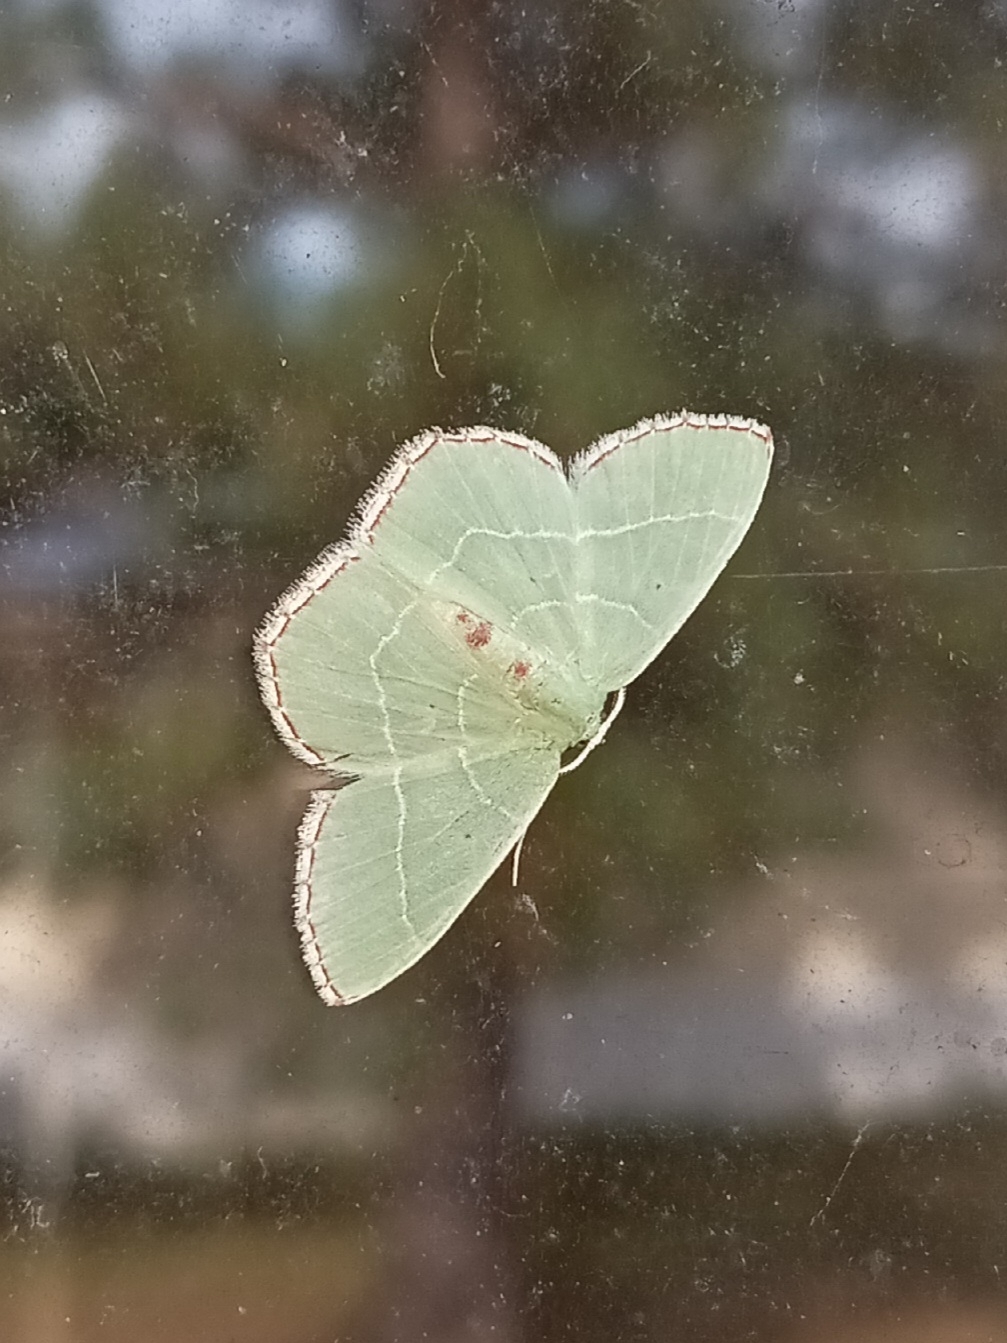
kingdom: Animalia
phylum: Arthropoda
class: Insecta
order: Lepidoptera
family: Geometridae
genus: Nemoria
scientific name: Nemoria bistriaria
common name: Red-fringed emerald
